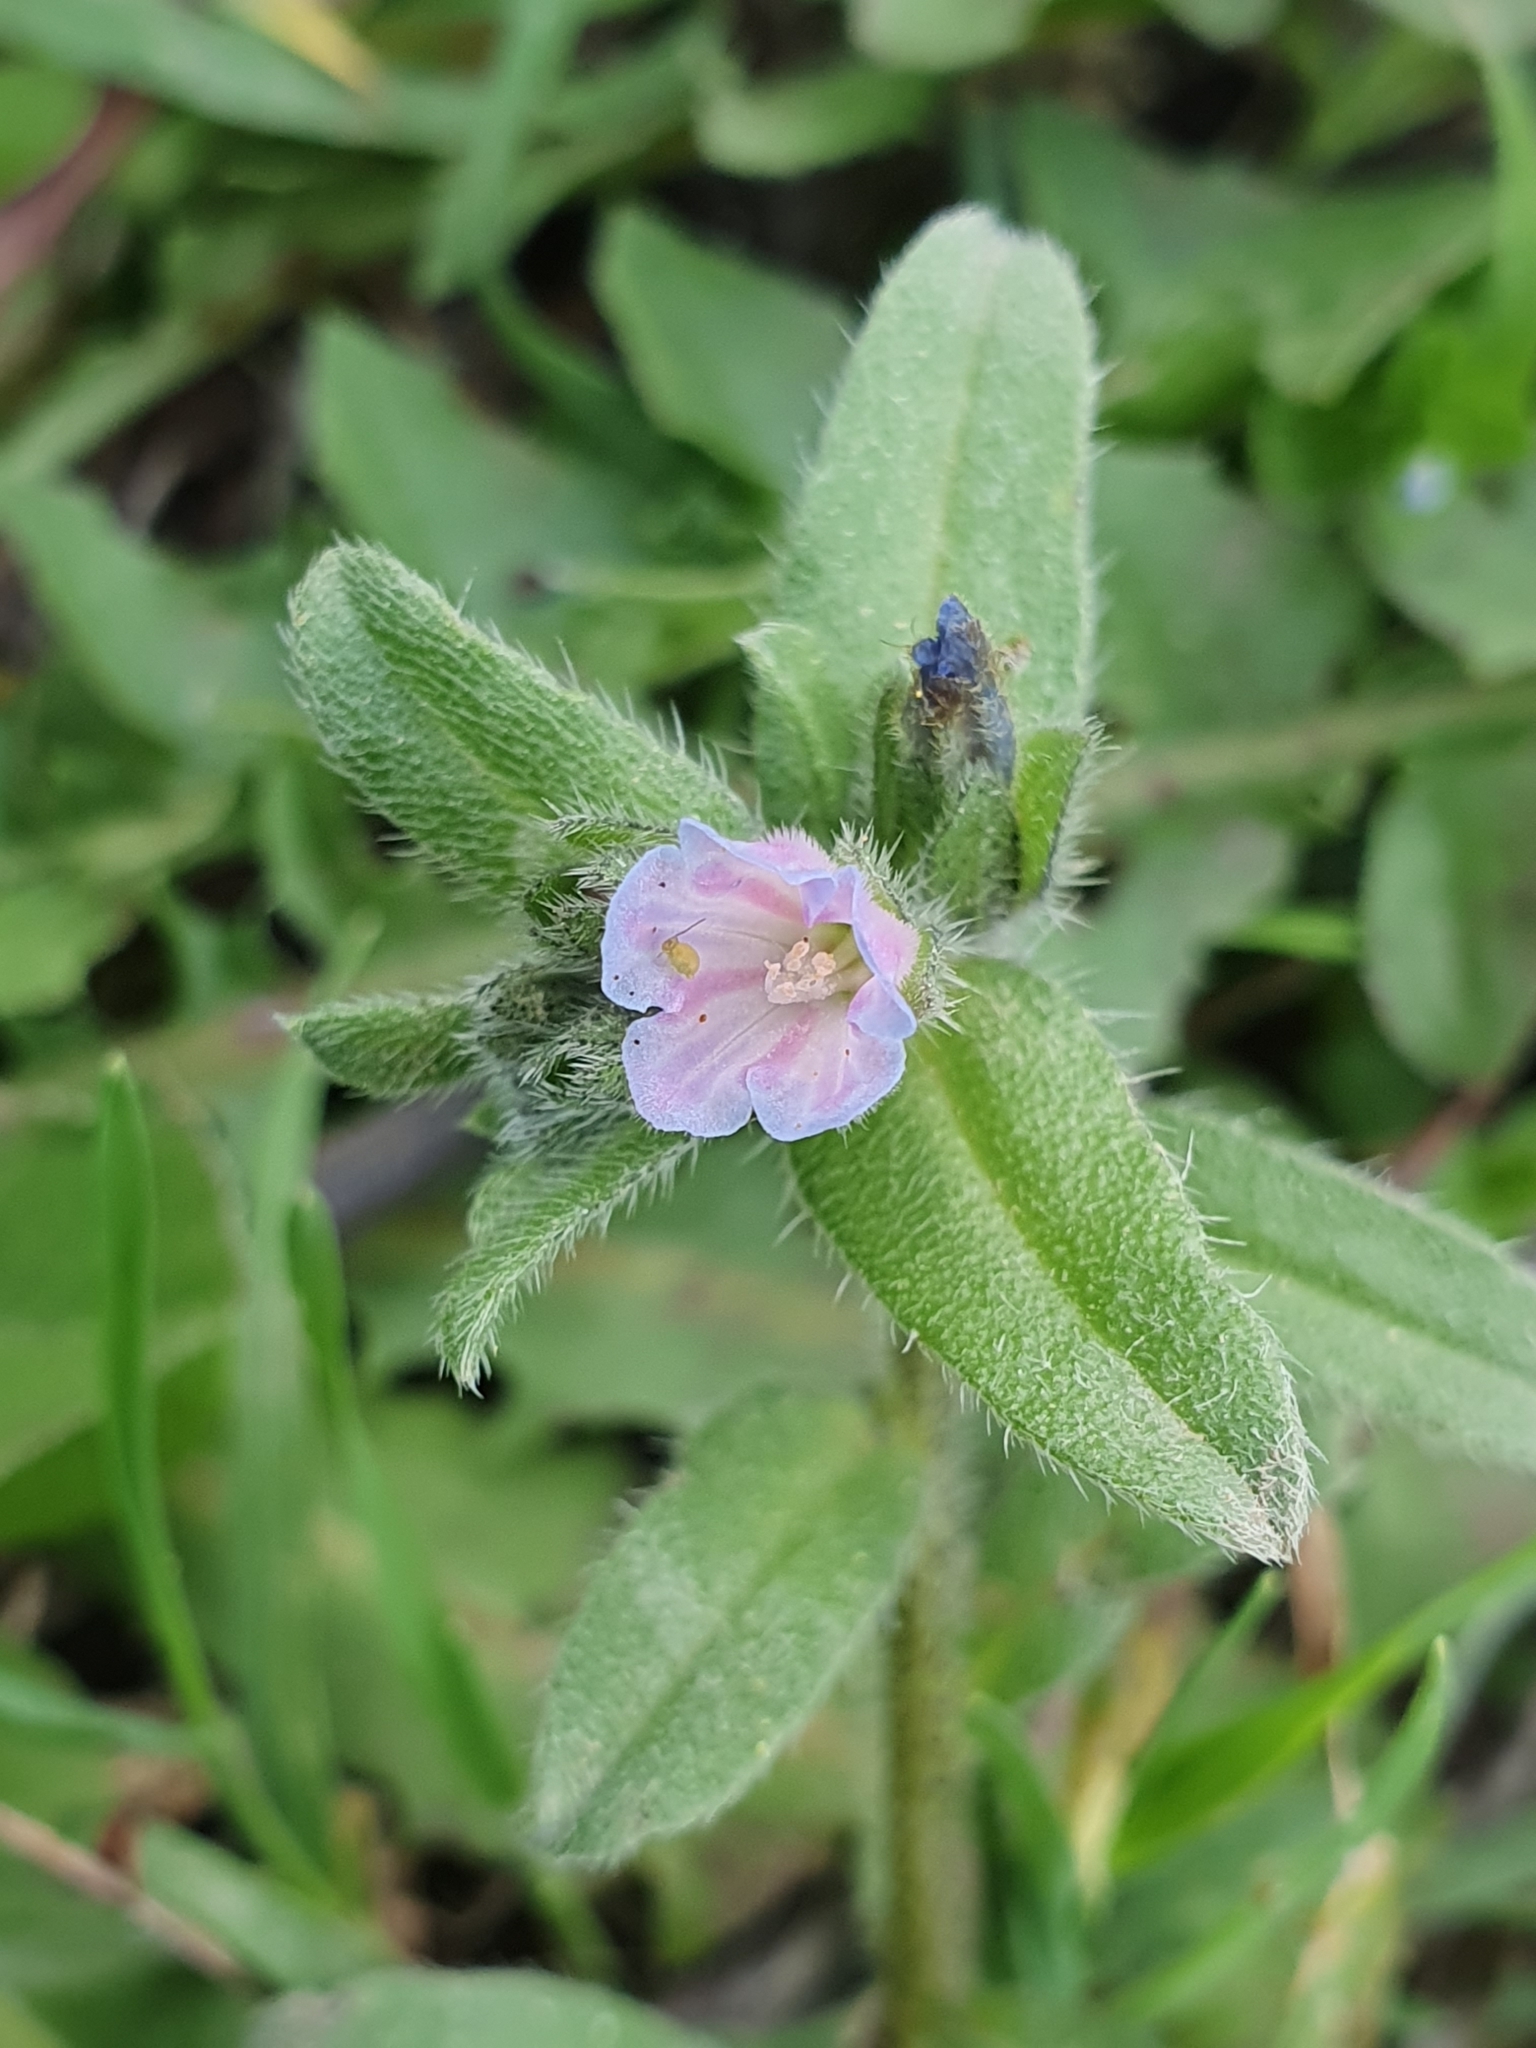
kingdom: Plantae
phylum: Tracheophyta
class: Magnoliopsida
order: Boraginales
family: Boraginaceae
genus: Echium
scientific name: Echium parviflorum
